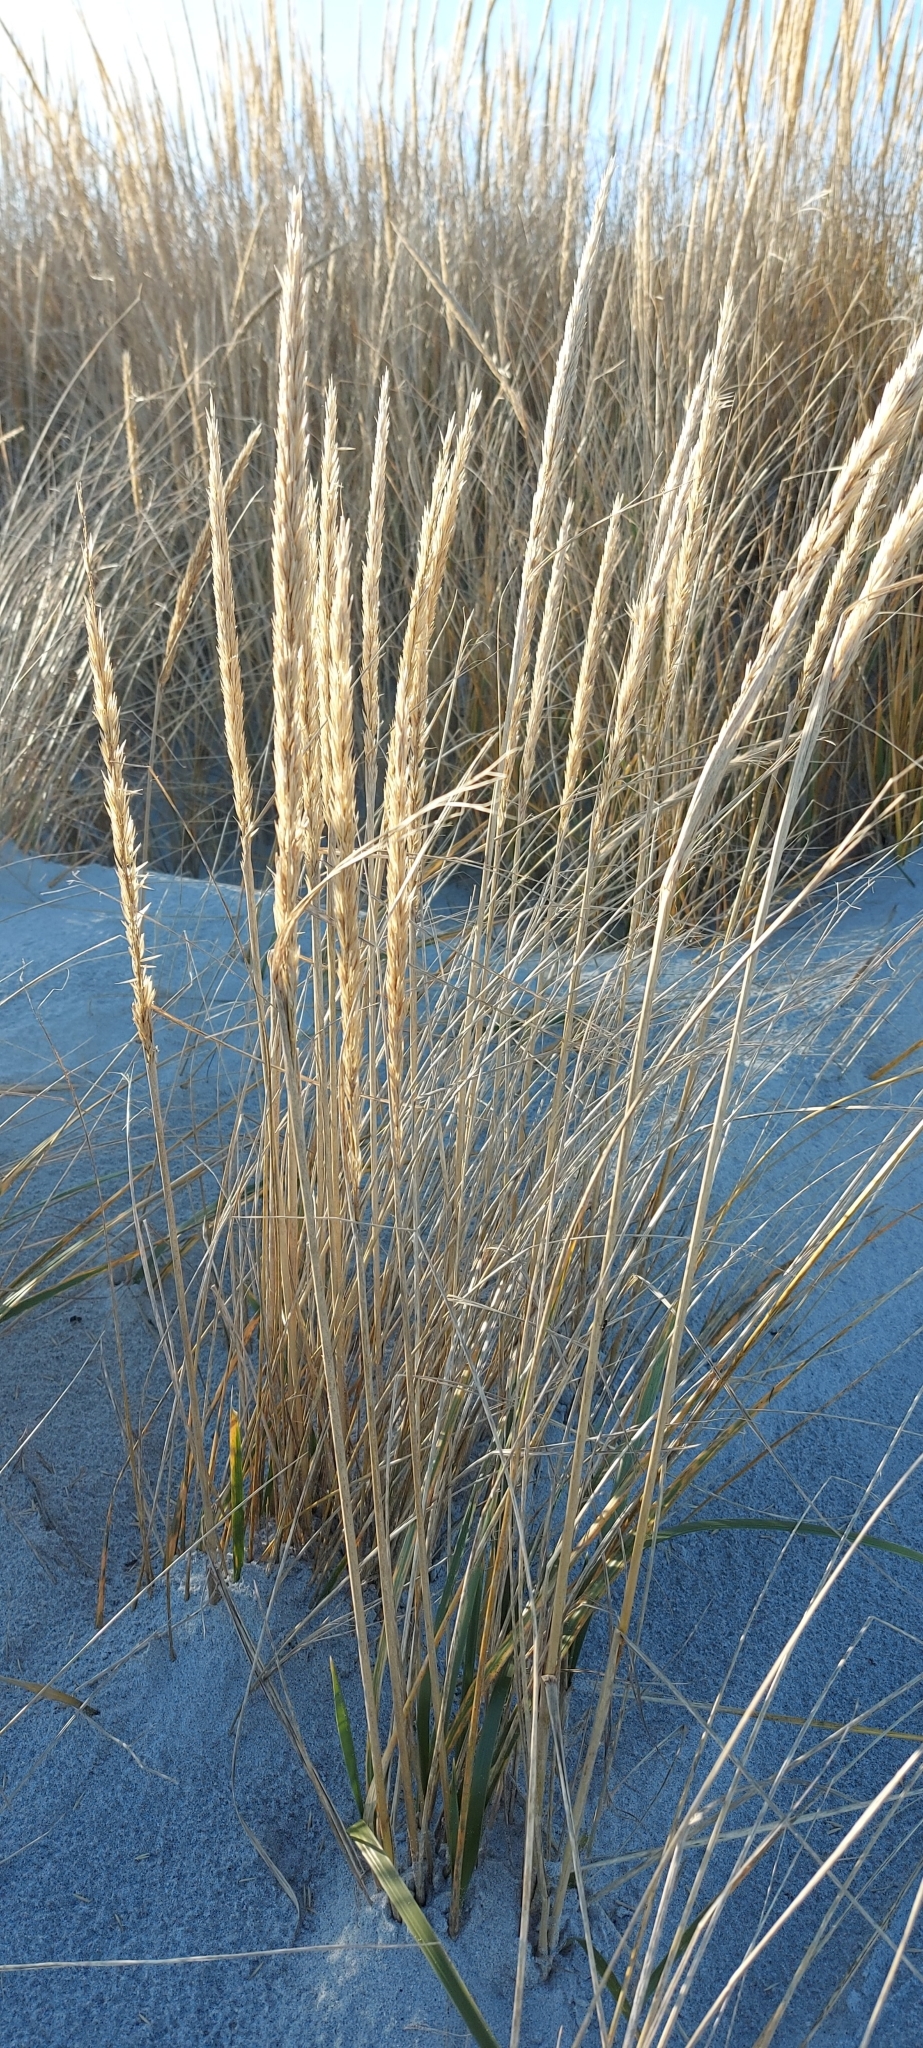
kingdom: Plantae
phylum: Tracheophyta
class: Liliopsida
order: Poales
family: Poaceae
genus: Calamagrostis
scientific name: Calamagrostis breviligulata
